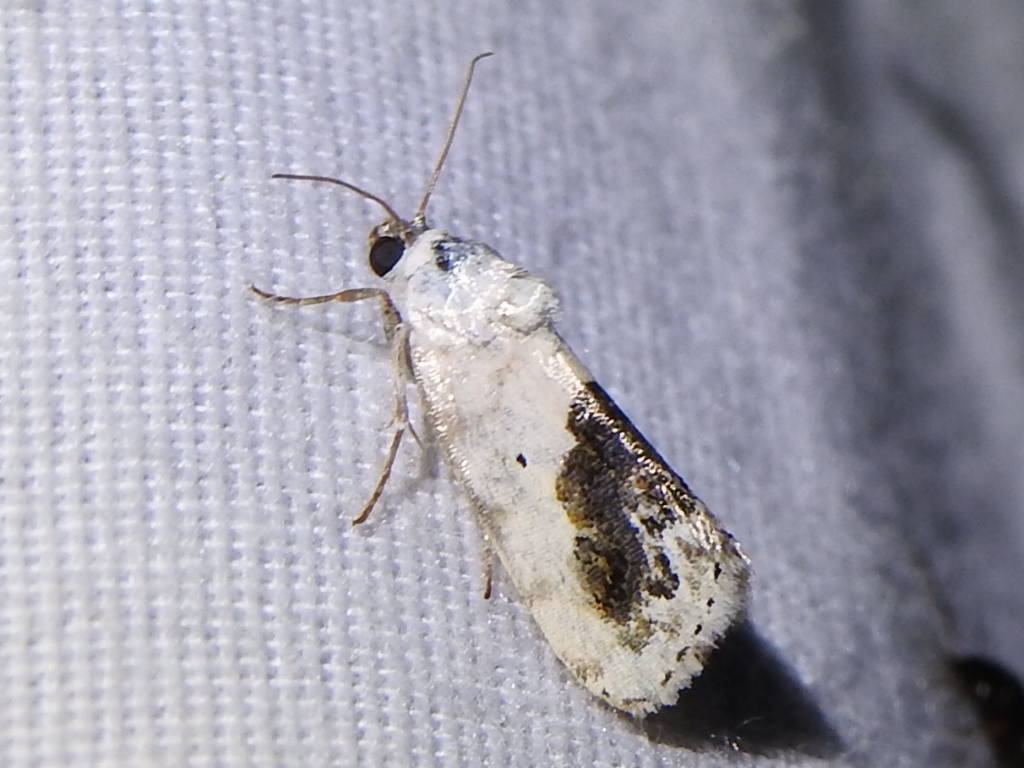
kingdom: Animalia
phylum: Arthropoda
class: Insecta
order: Lepidoptera
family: Noctuidae
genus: Acontia
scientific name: Acontia erastrioides
